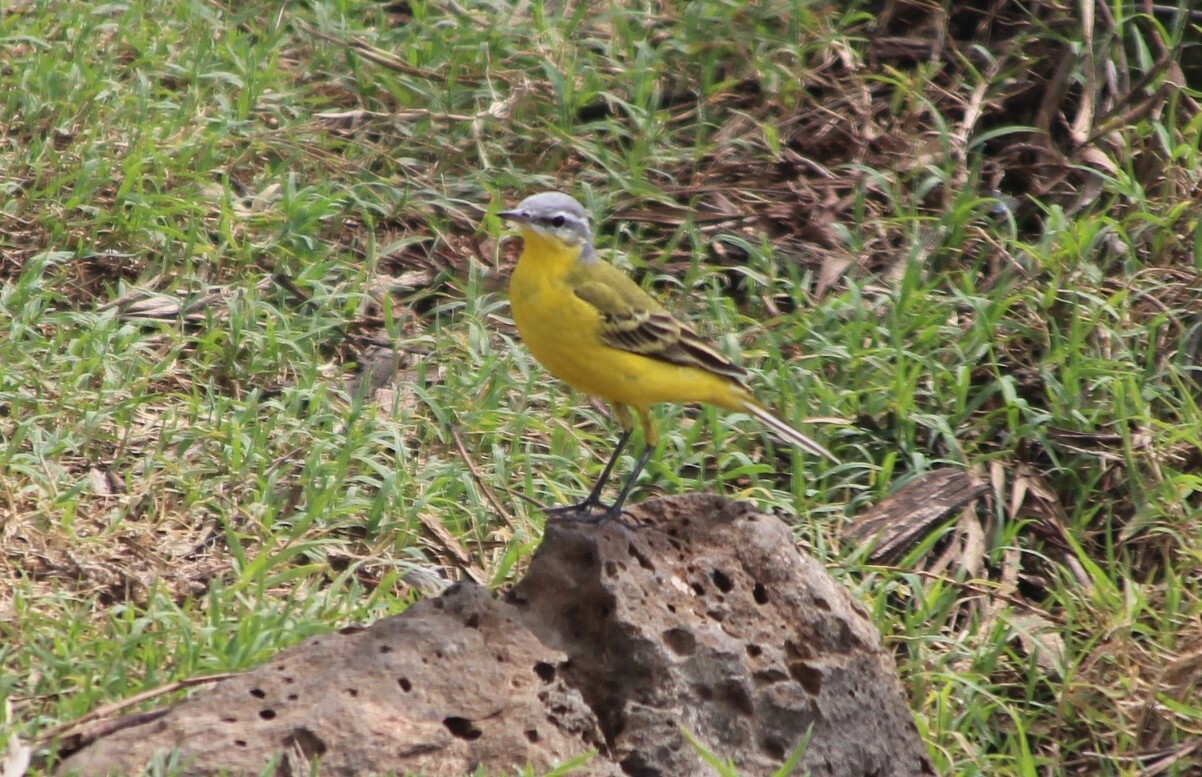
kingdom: Animalia
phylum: Chordata
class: Aves
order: Passeriformes
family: Motacillidae
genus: Motacilla
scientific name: Motacilla flava
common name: Western yellow wagtail
